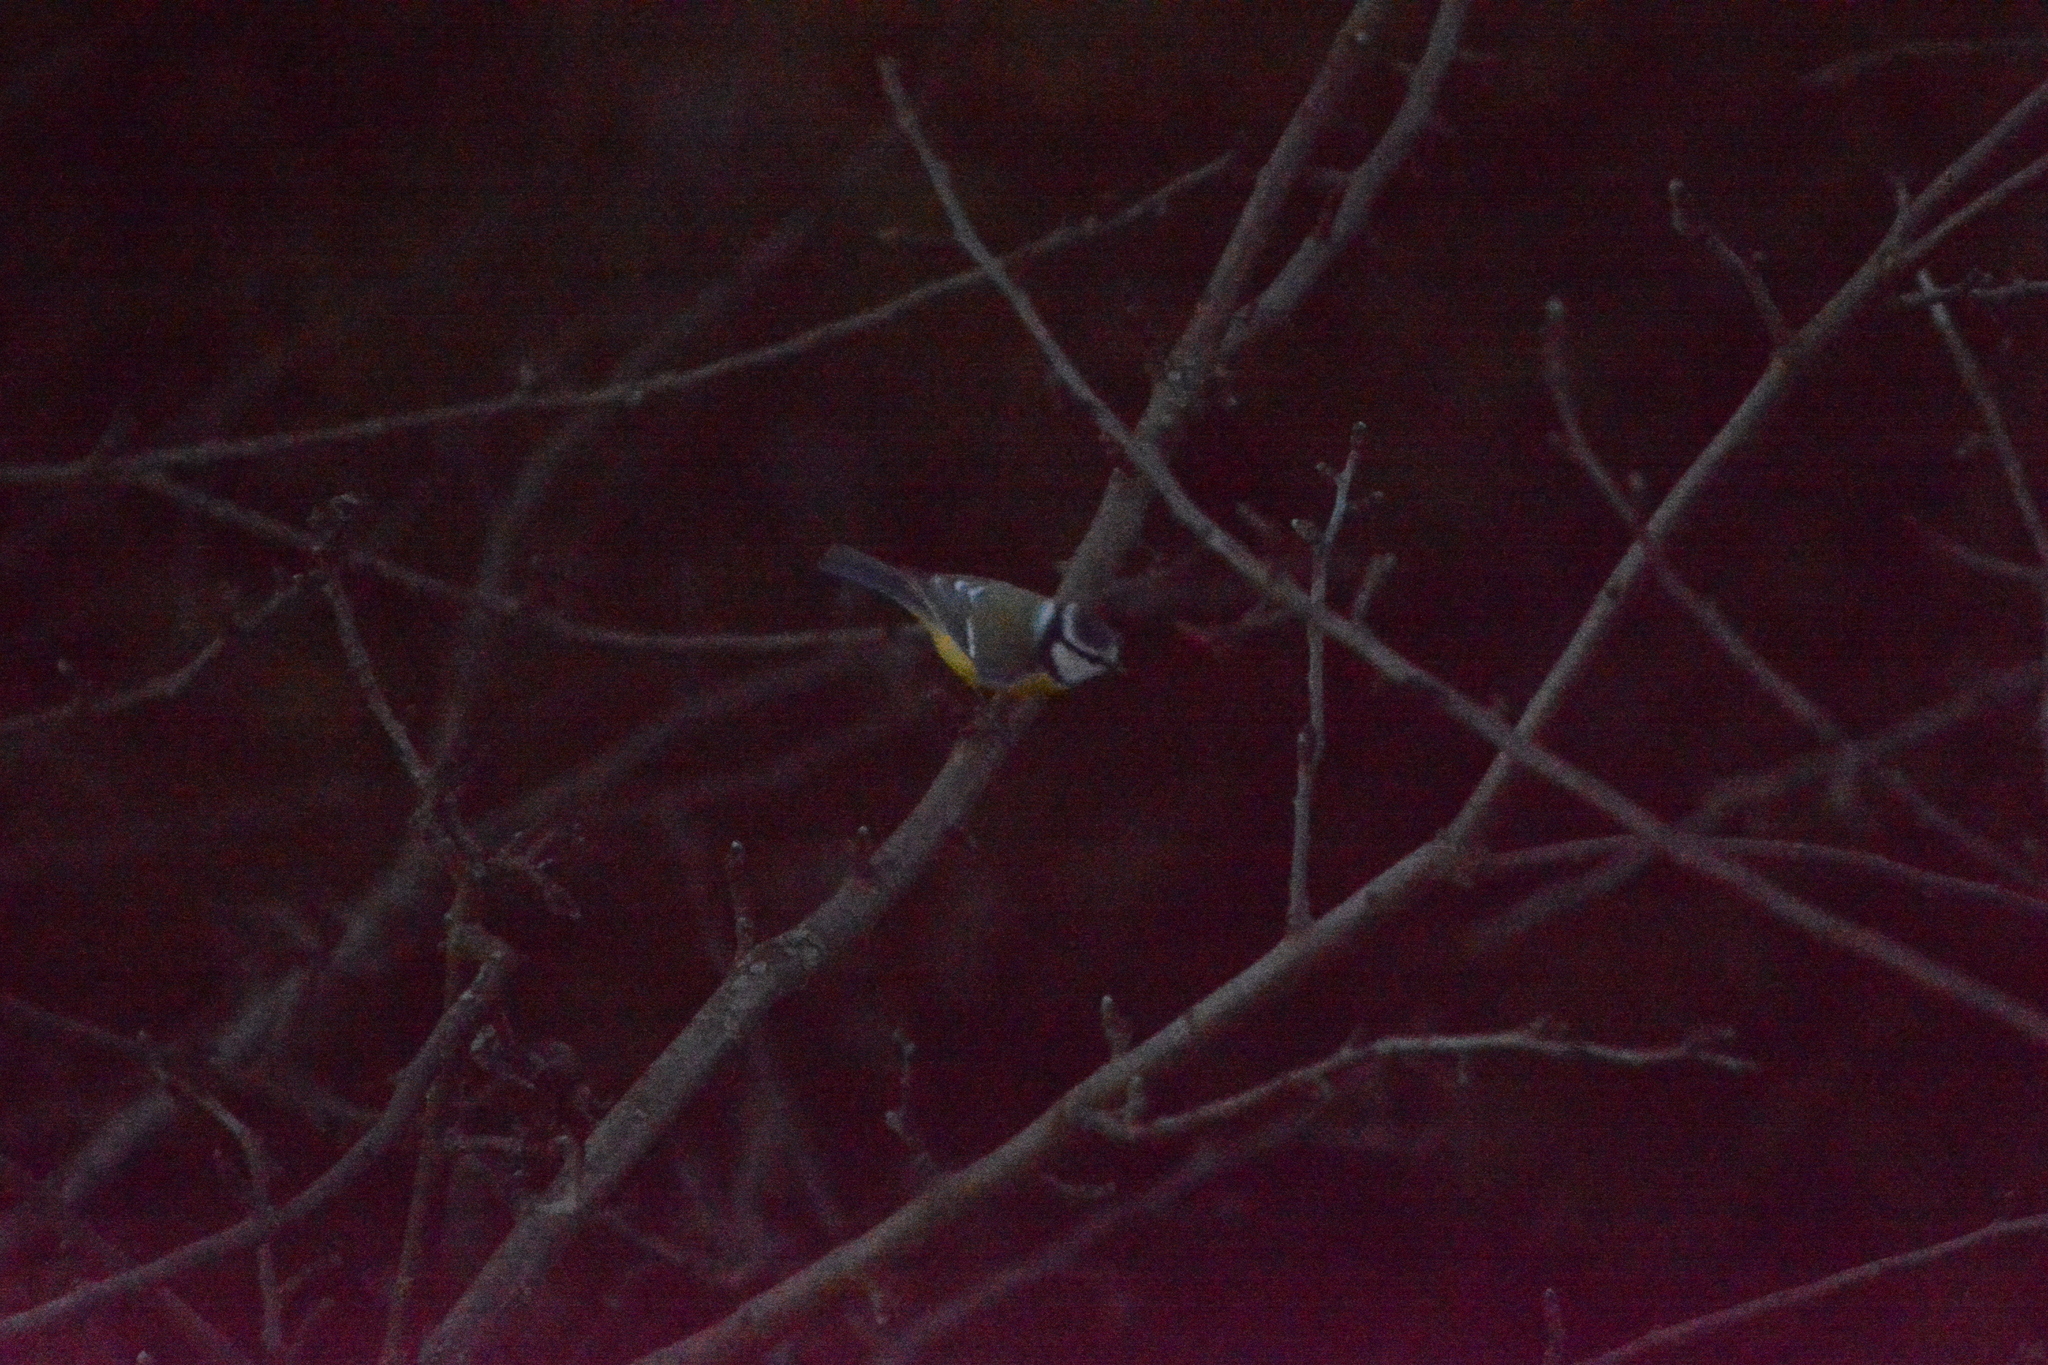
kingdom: Animalia
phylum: Chordata
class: Aves
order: Passeriformes
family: Paridae
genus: Cyanistes
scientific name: Cyanistes caeruleus
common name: Eurasian blue tit
